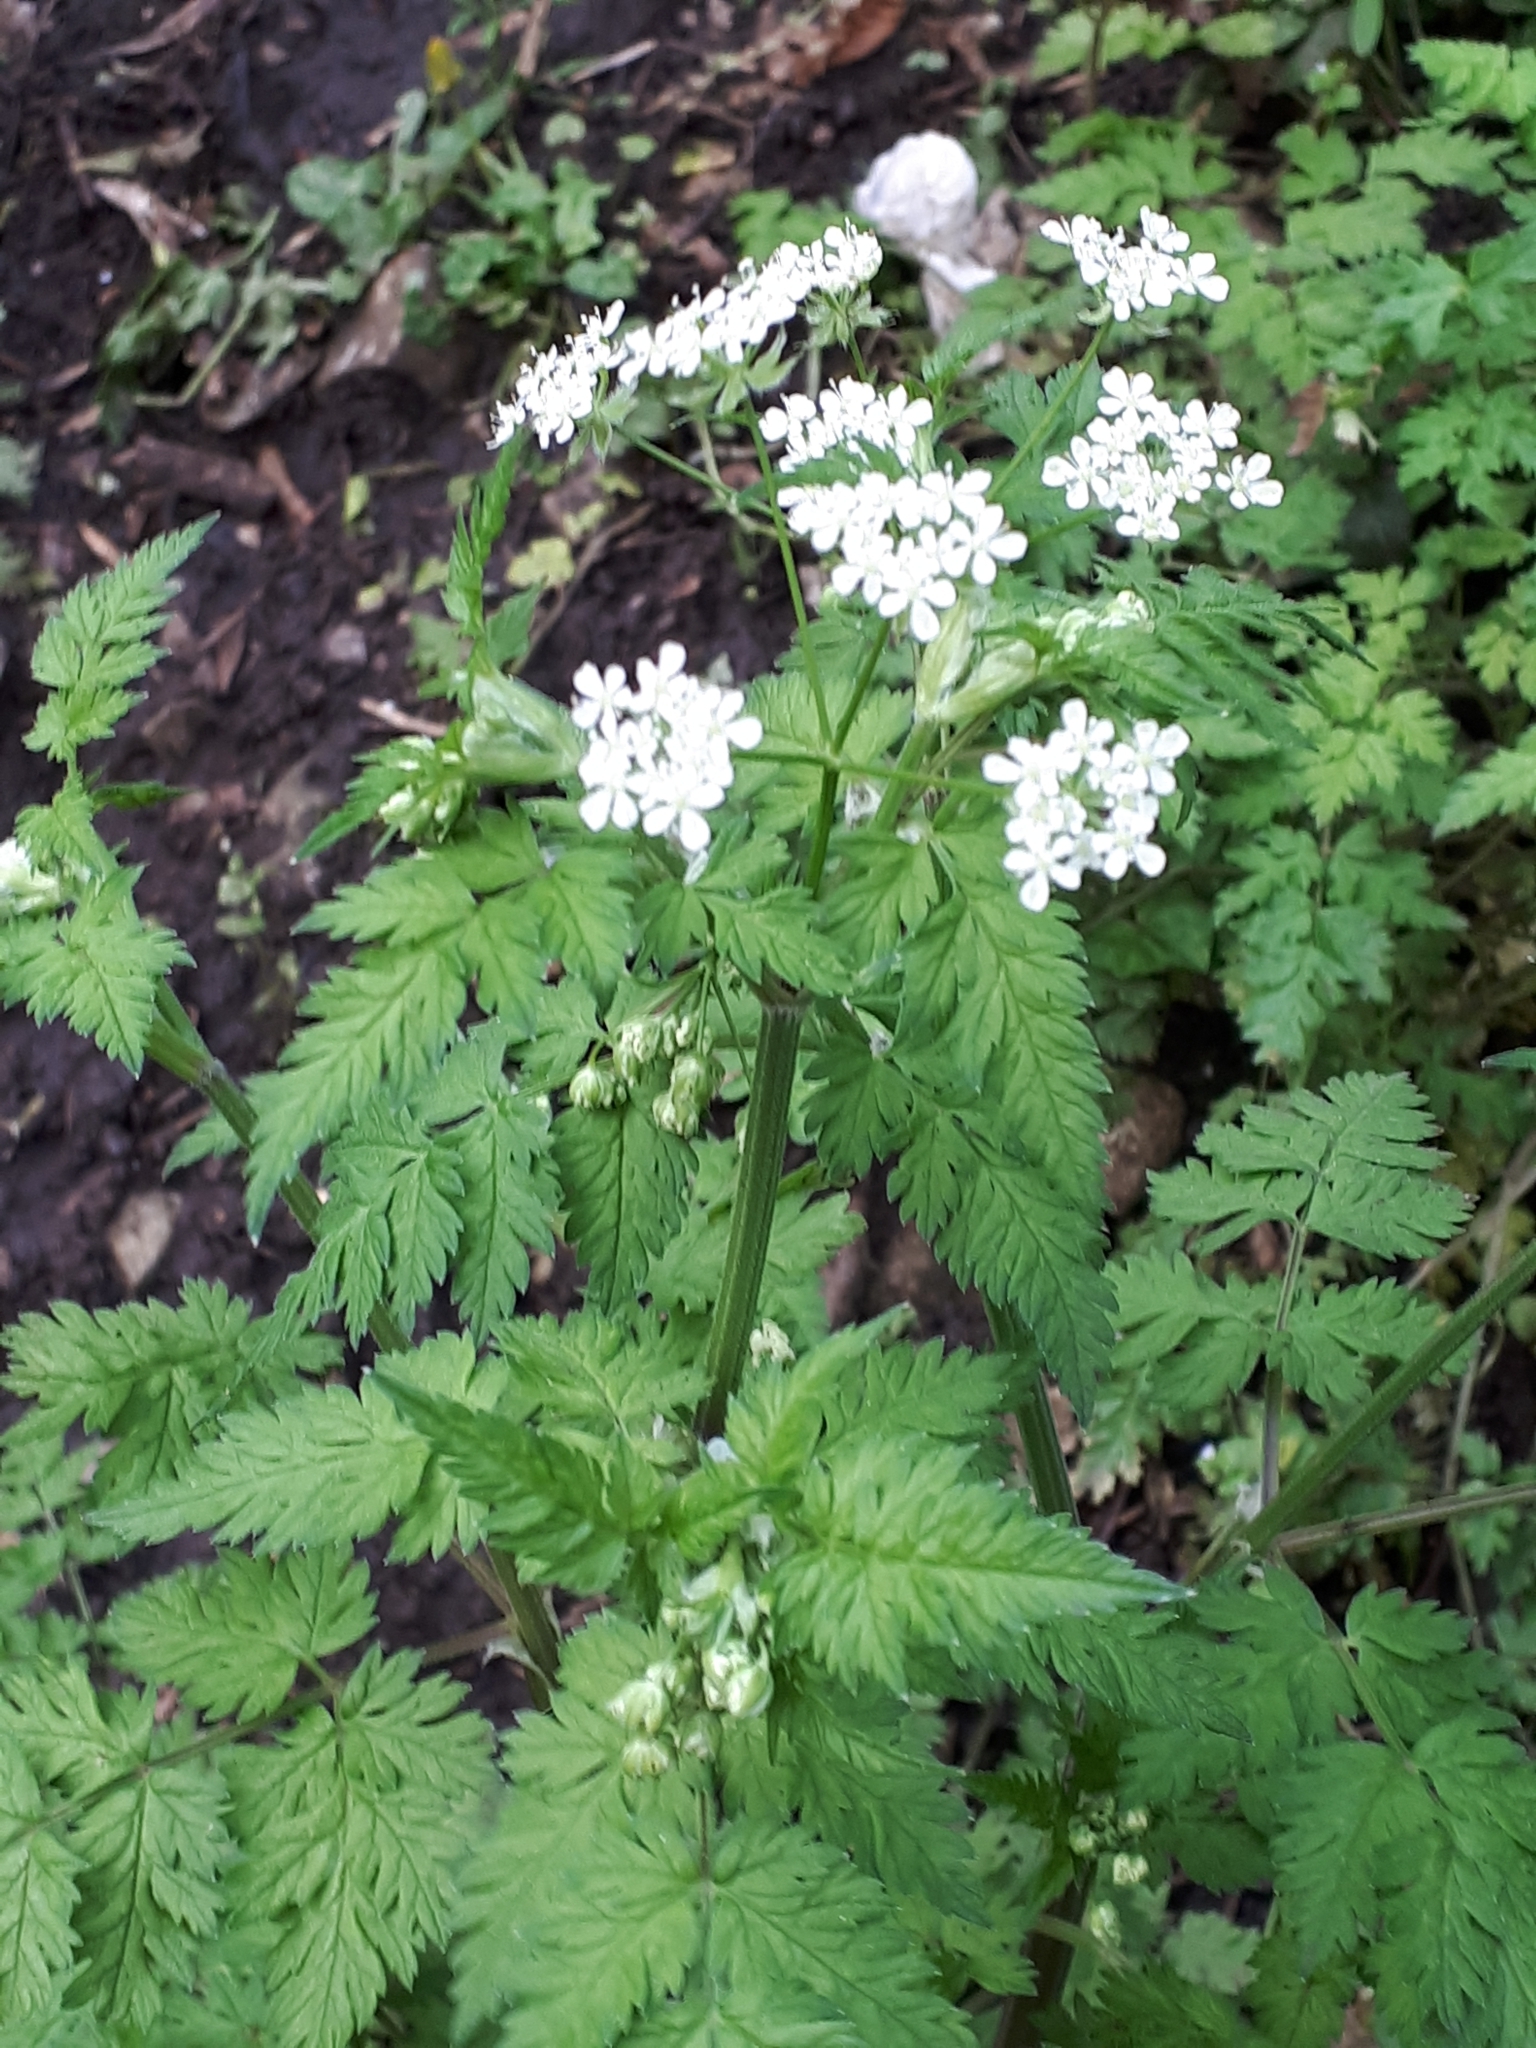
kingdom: Plantae
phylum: Tracheophyta
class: Magnoliopsida
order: Apiales
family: Apiaceae
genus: Anthriscus
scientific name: Anthriscus sylvestris
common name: Cow parsley
